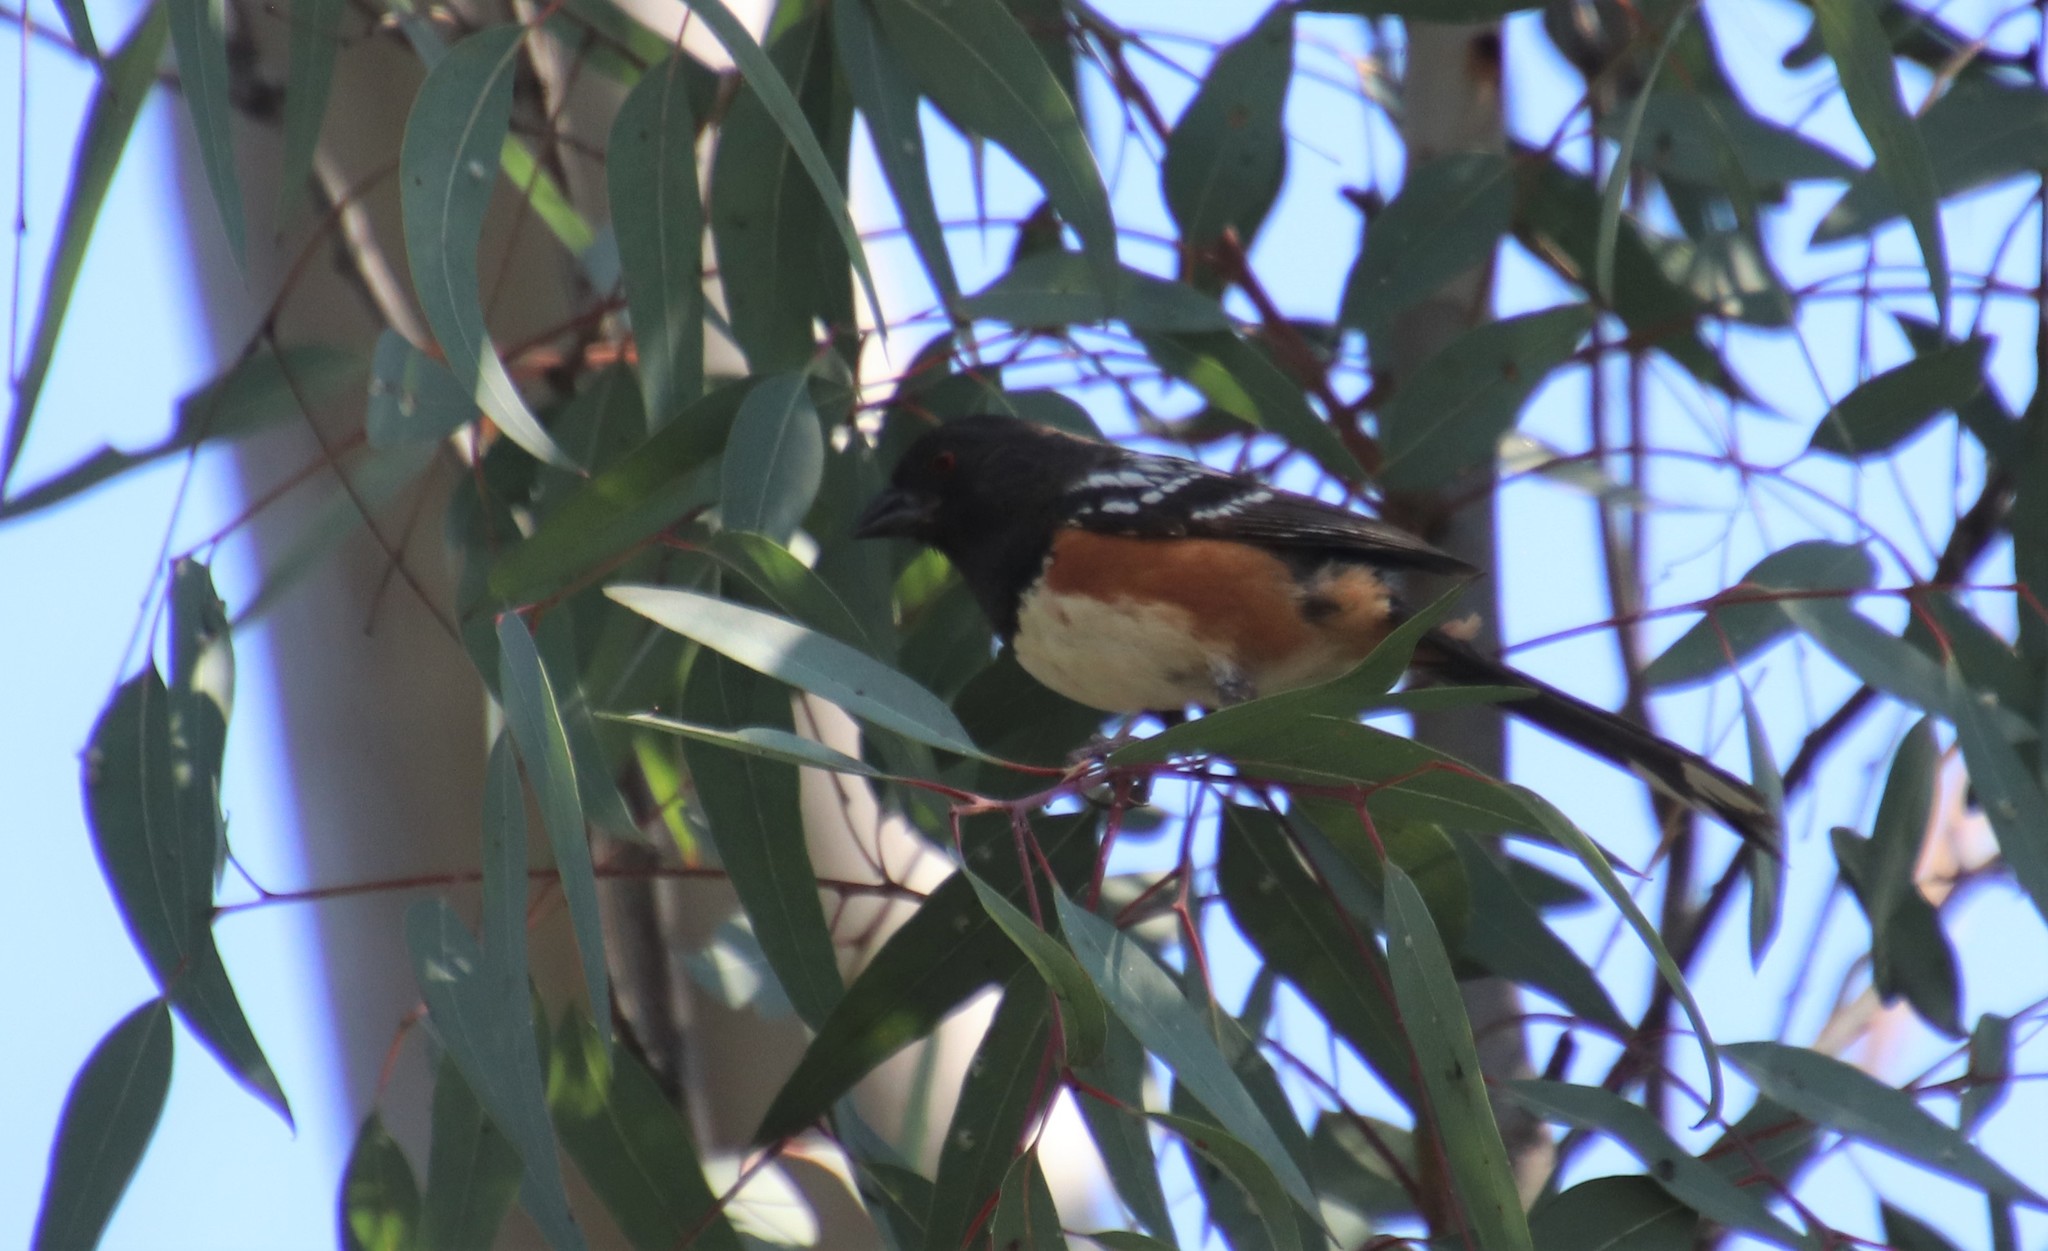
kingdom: Animalia
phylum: Chordata
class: Aves
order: Passeriformes
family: Passerellidae
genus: Pipilo
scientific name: Pipilo maculatus
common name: Spotted towhee
